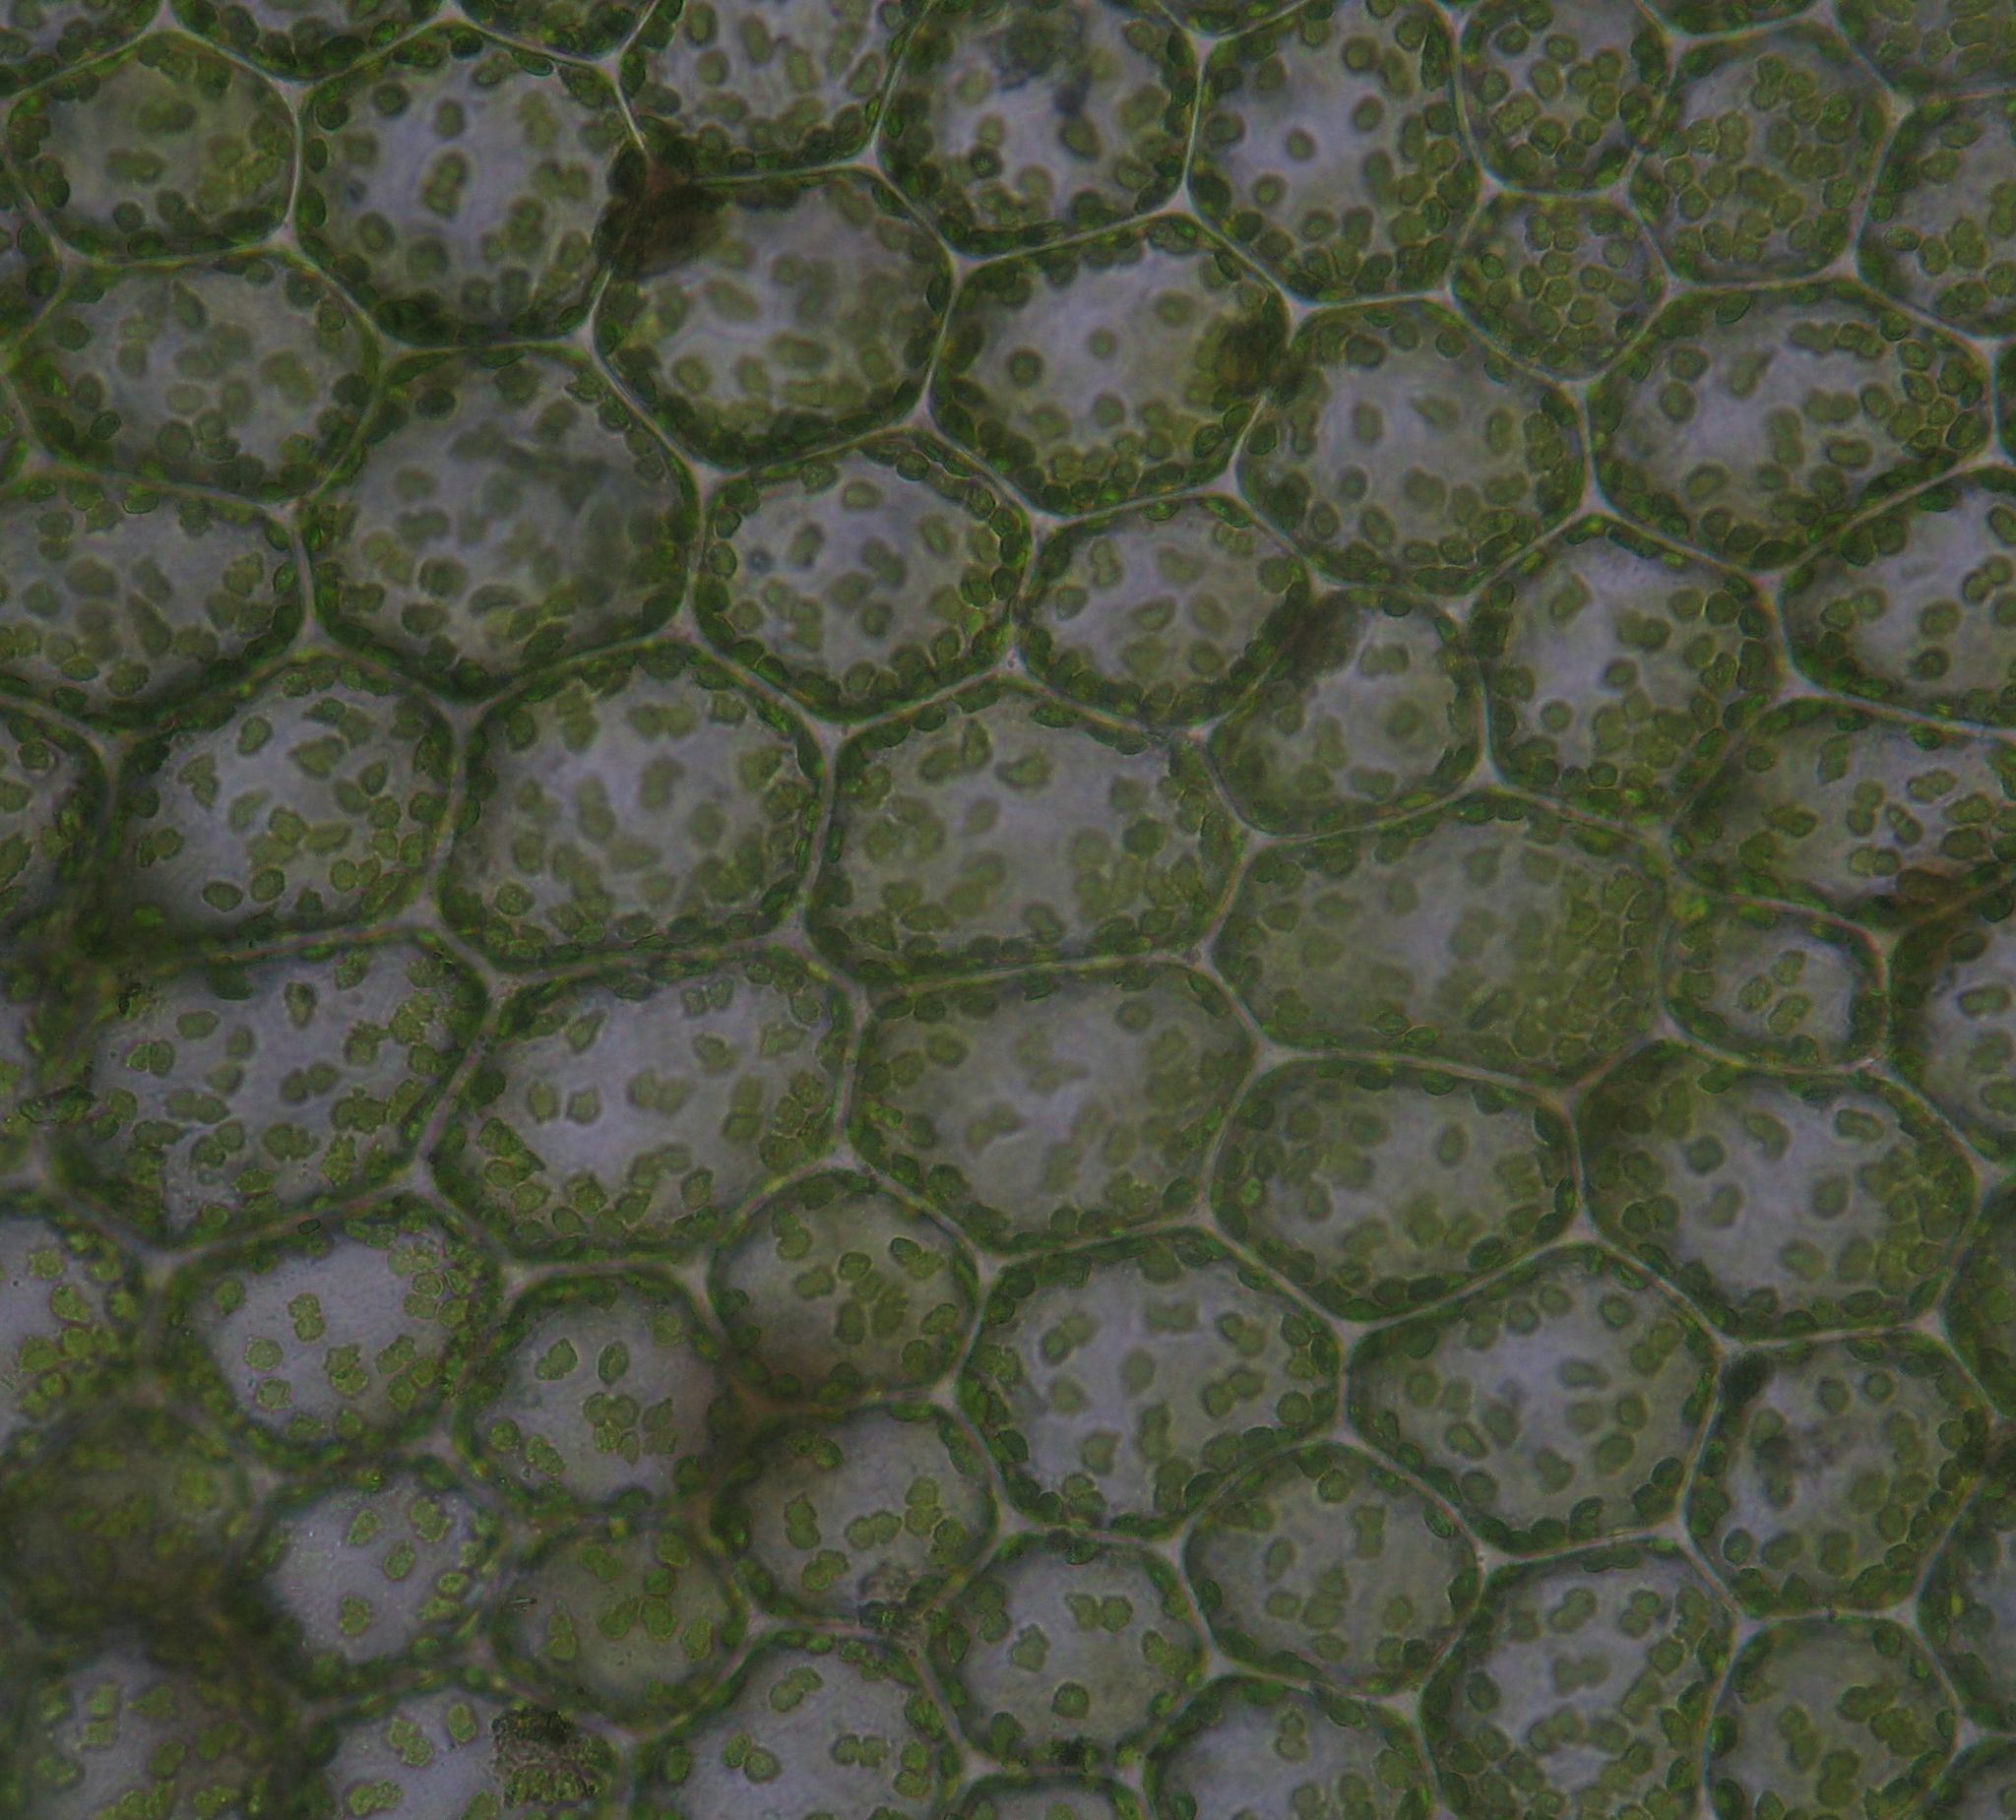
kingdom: Plantae
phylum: Bryophyta
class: Bryopsida
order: Hookeriales
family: Daltoniaceae
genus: Achrophyllum
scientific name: Achrophyllum dentatum
